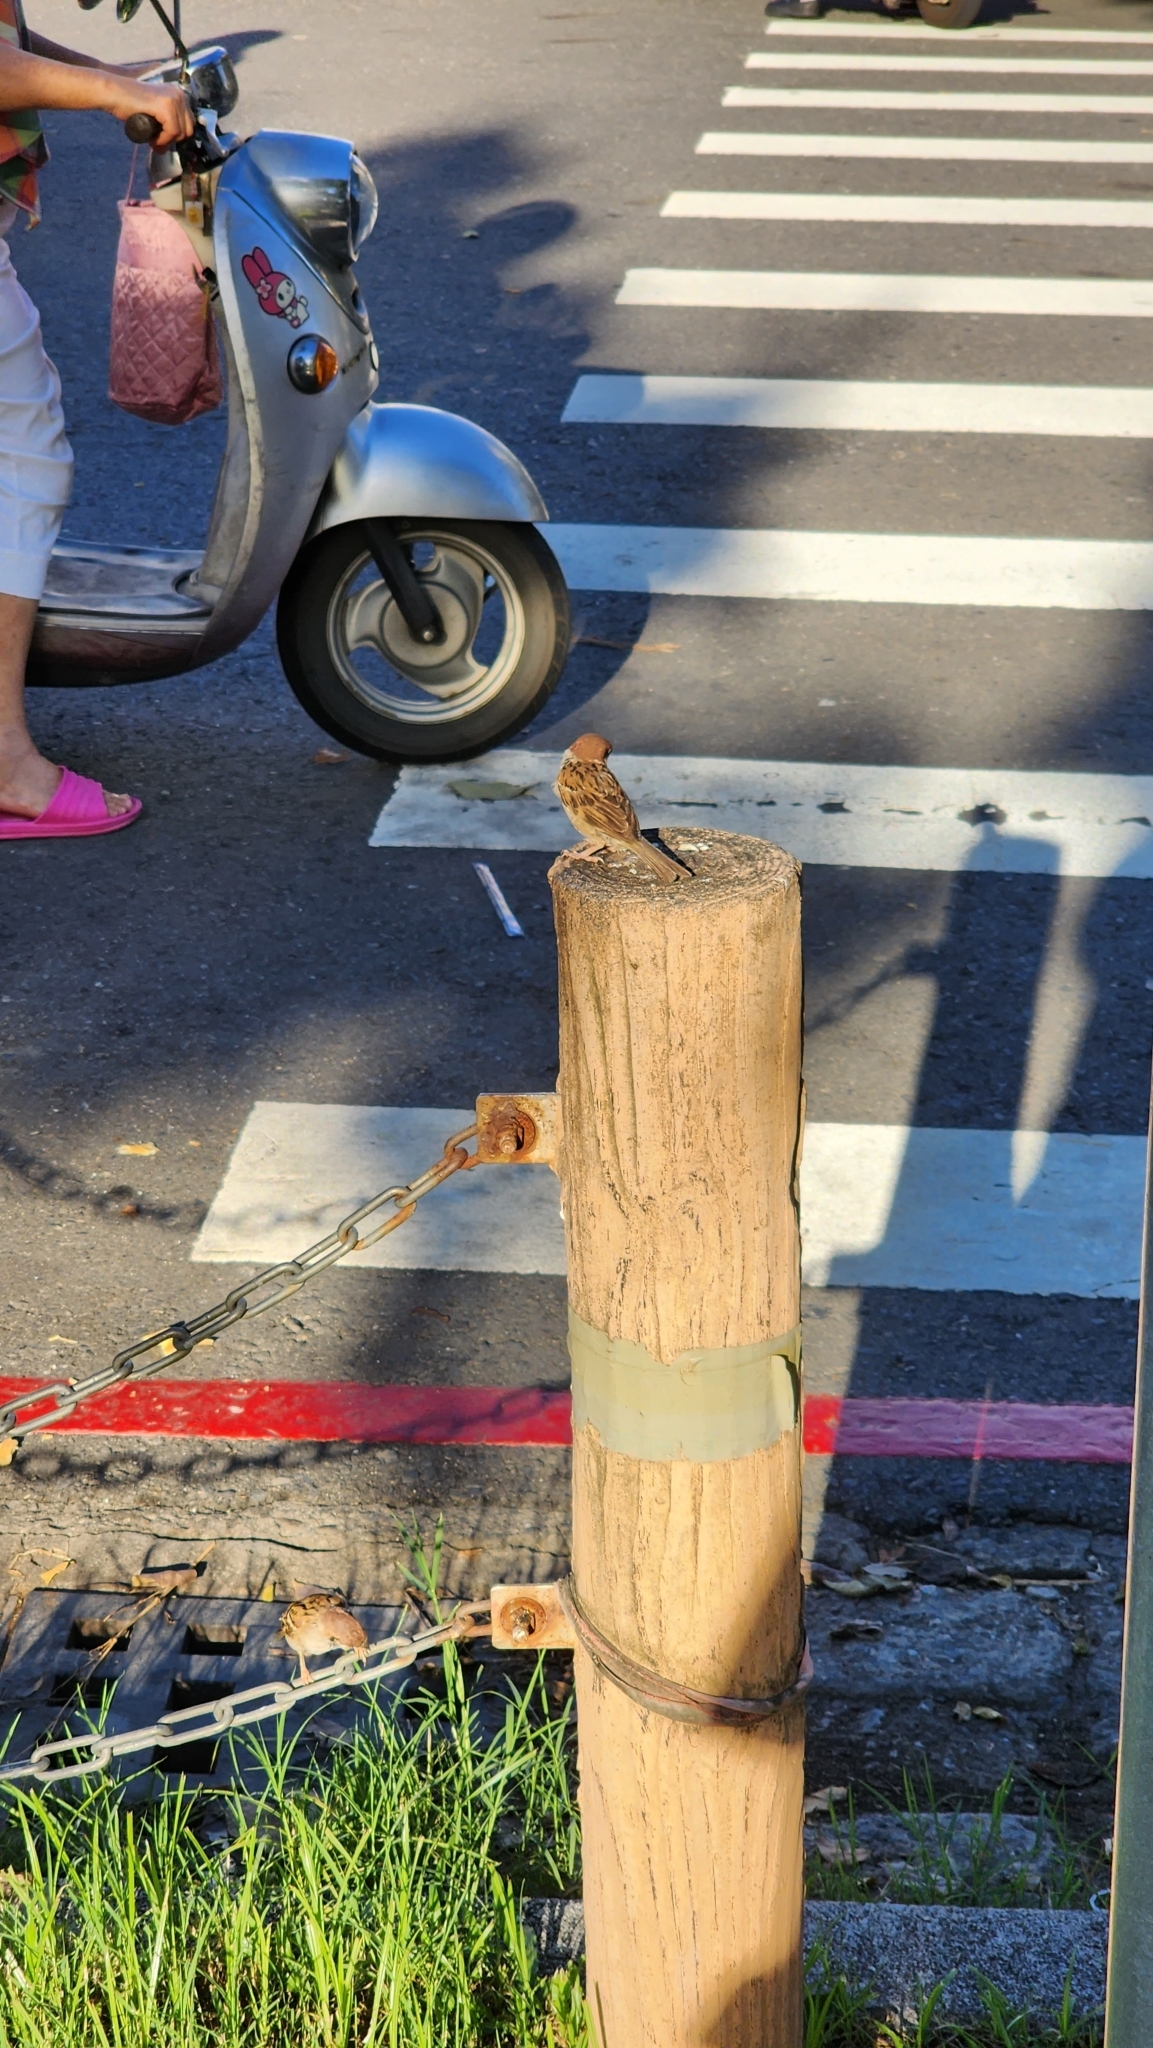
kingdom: Animalia
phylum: Chordata
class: Aves
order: Passeriformes
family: Passeridae
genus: Passer
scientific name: Passer montanus
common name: Eurasian tree sparrow
